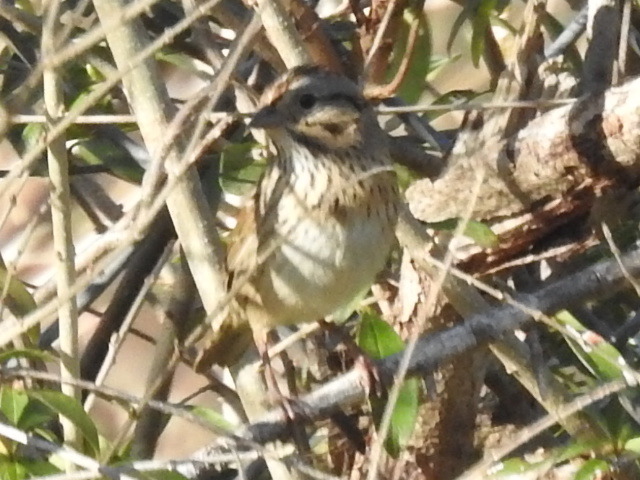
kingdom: Animalia
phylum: Chordata
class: Aves
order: Passeriformes
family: Passerellidae
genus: Melospiza
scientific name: Melospiza lincolnii
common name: Lincoln's sparrow
